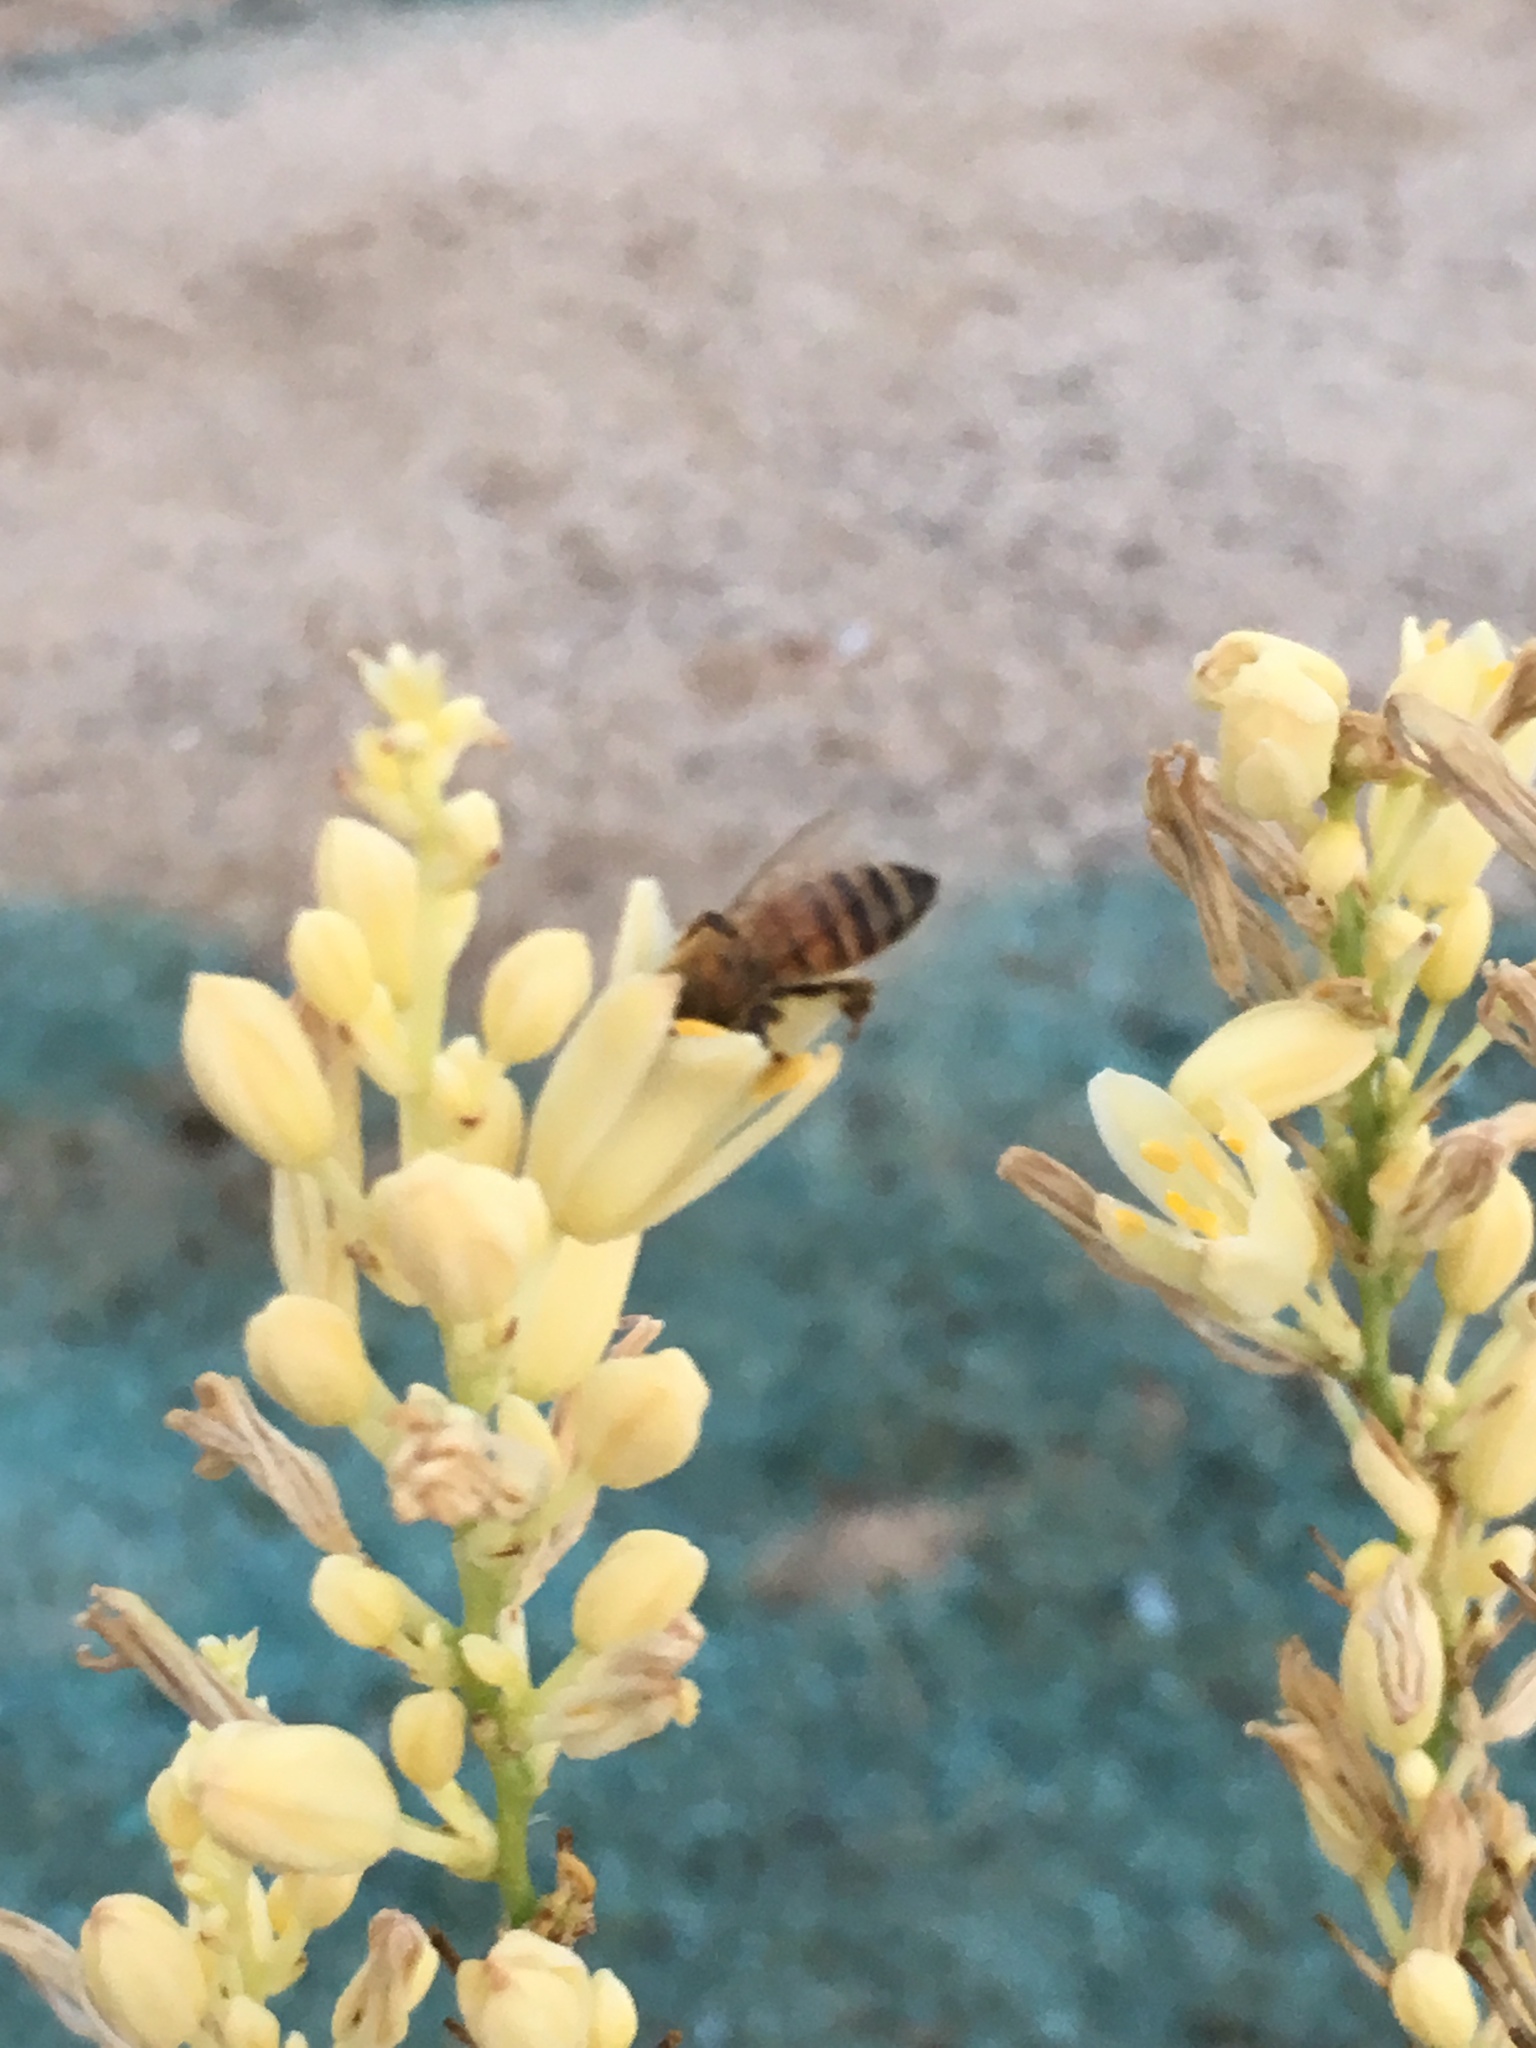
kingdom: Animalia
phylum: Arthropoda
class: Insecta
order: Hymenoptera
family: Apidae
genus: Apis
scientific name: Apis mellifera
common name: Honey bee
